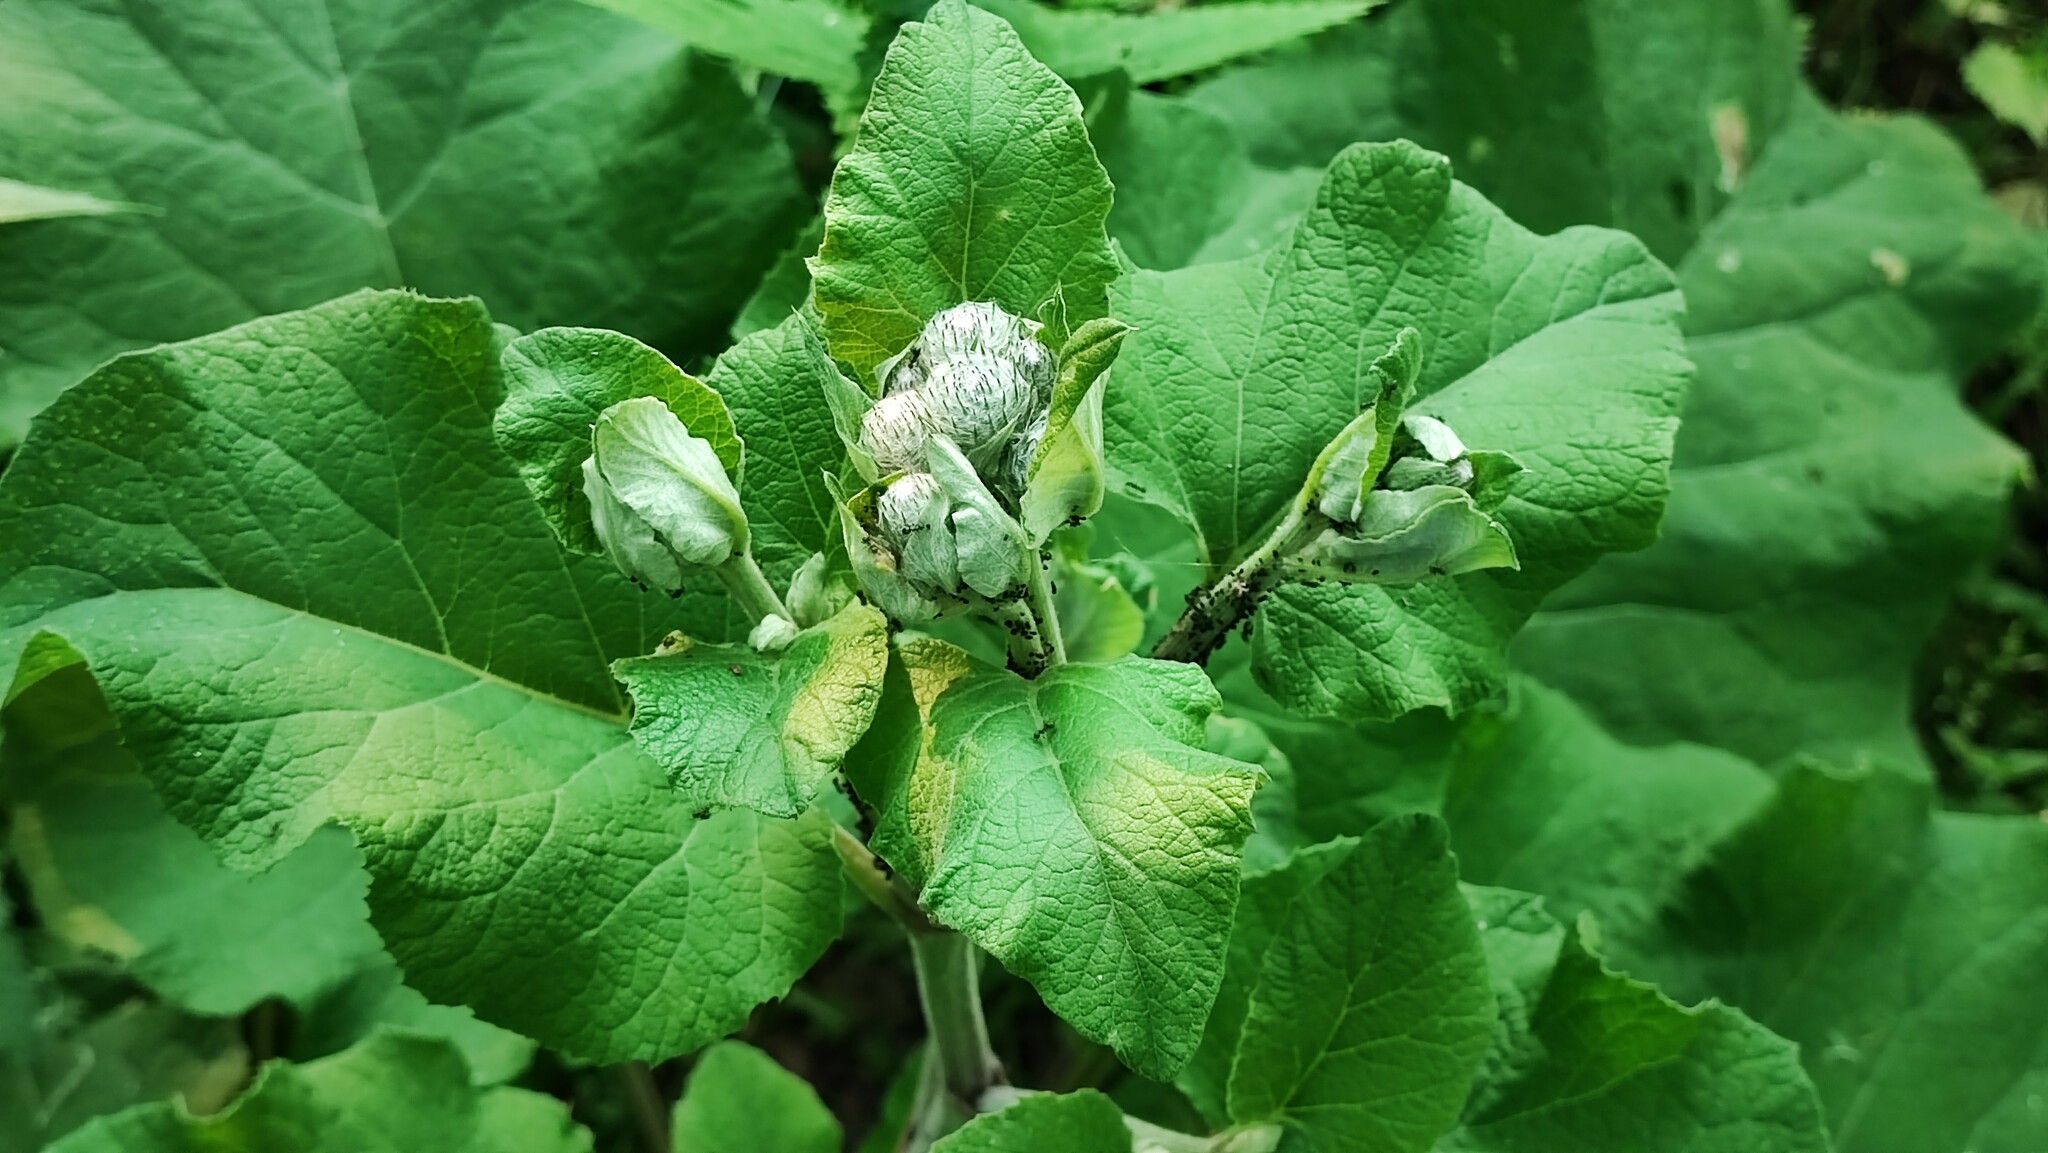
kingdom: Plantae
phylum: Tracheophyta
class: Magnoliopsida
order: Asterales
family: Asteraceae
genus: Arctium
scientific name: Arctium tomentosum
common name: Woolly burdock
